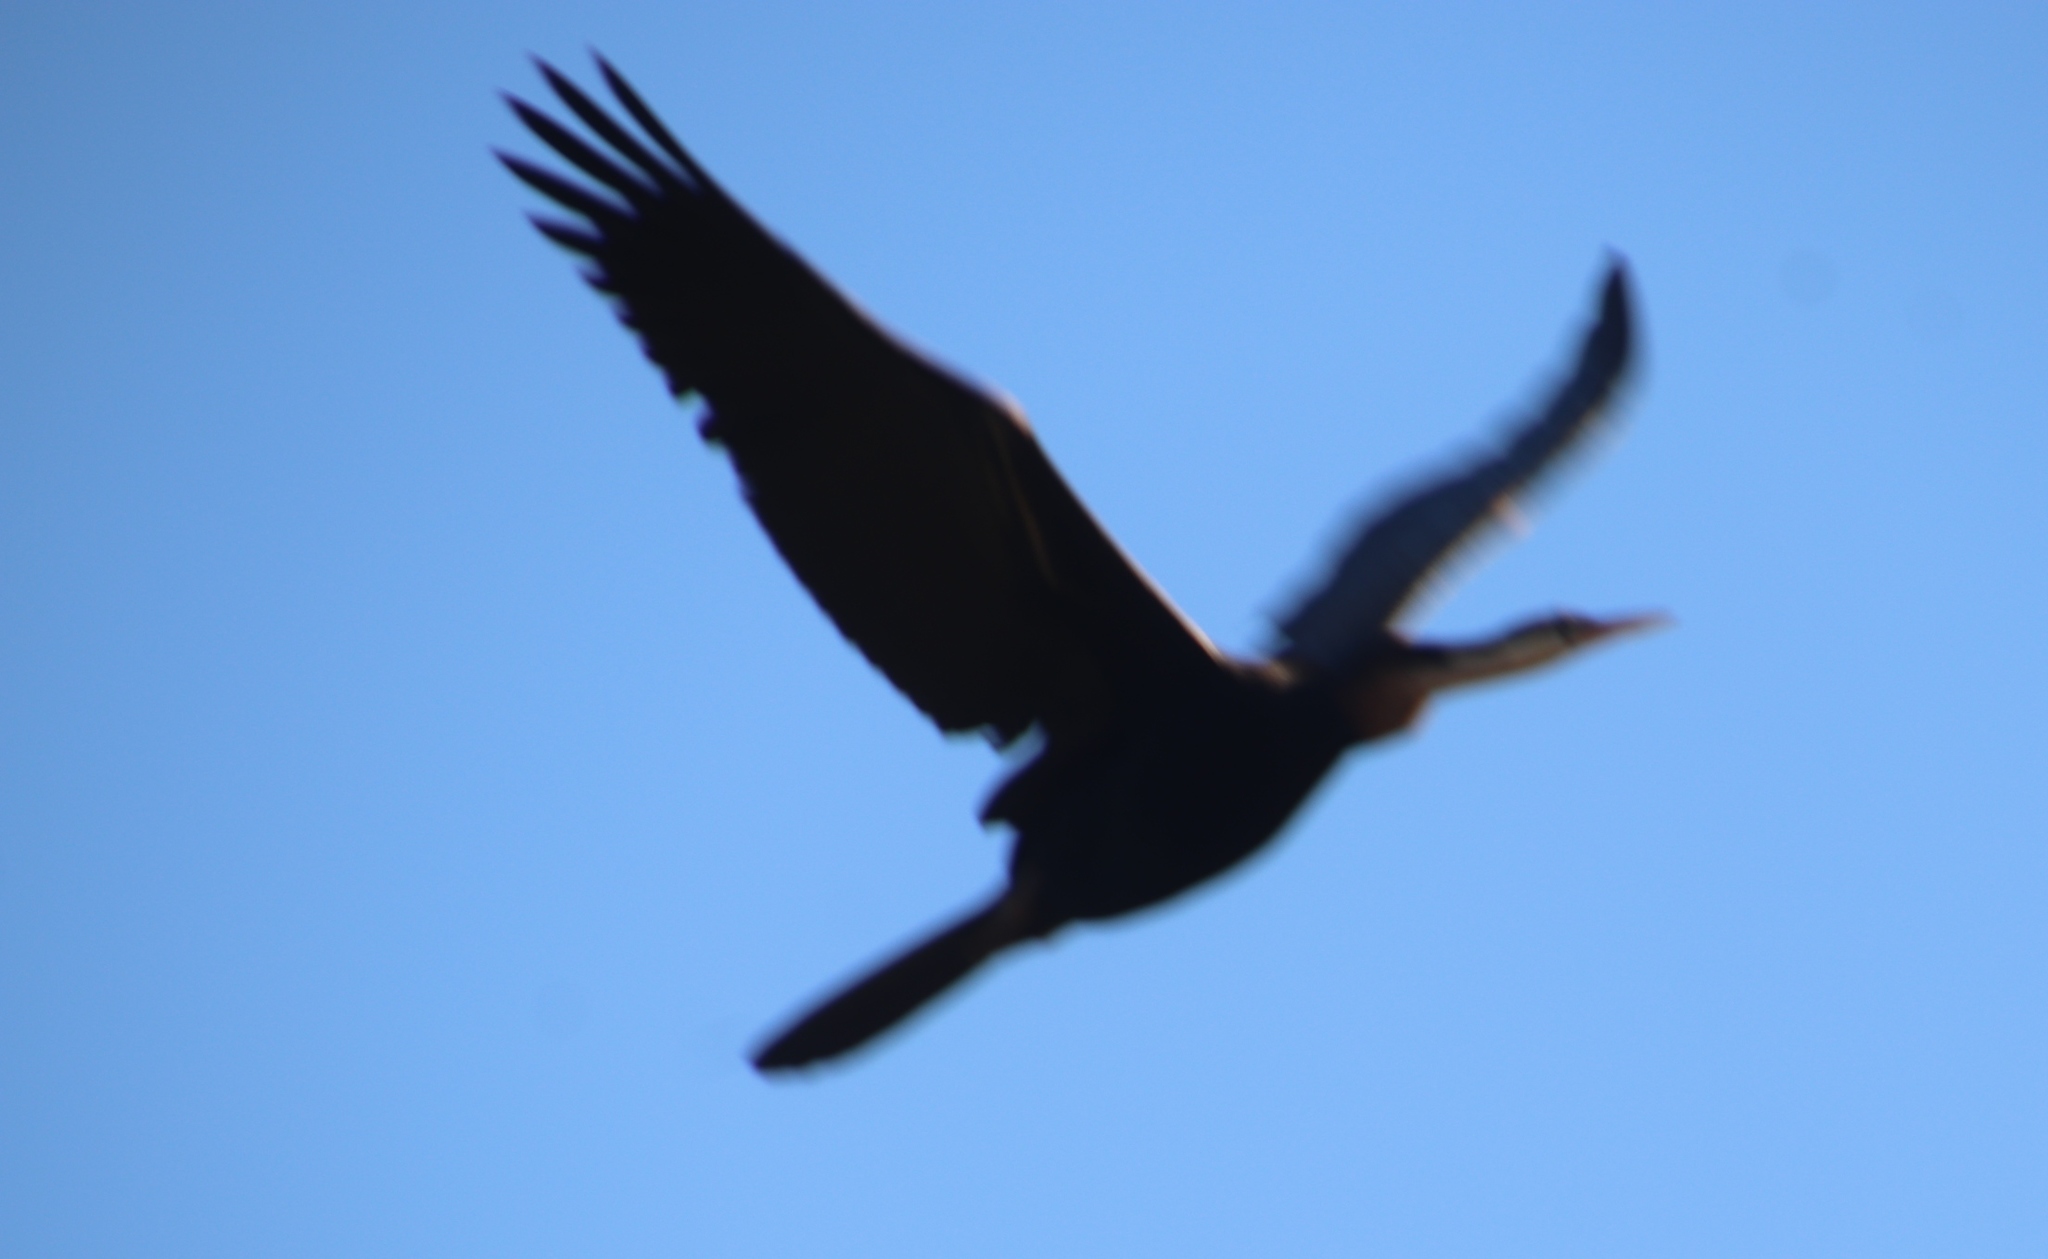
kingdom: Animalia
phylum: Chordata
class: Aves
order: Suliformes
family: Anhingidae
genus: Anhinga
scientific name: Anhinga rufa
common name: African darter
